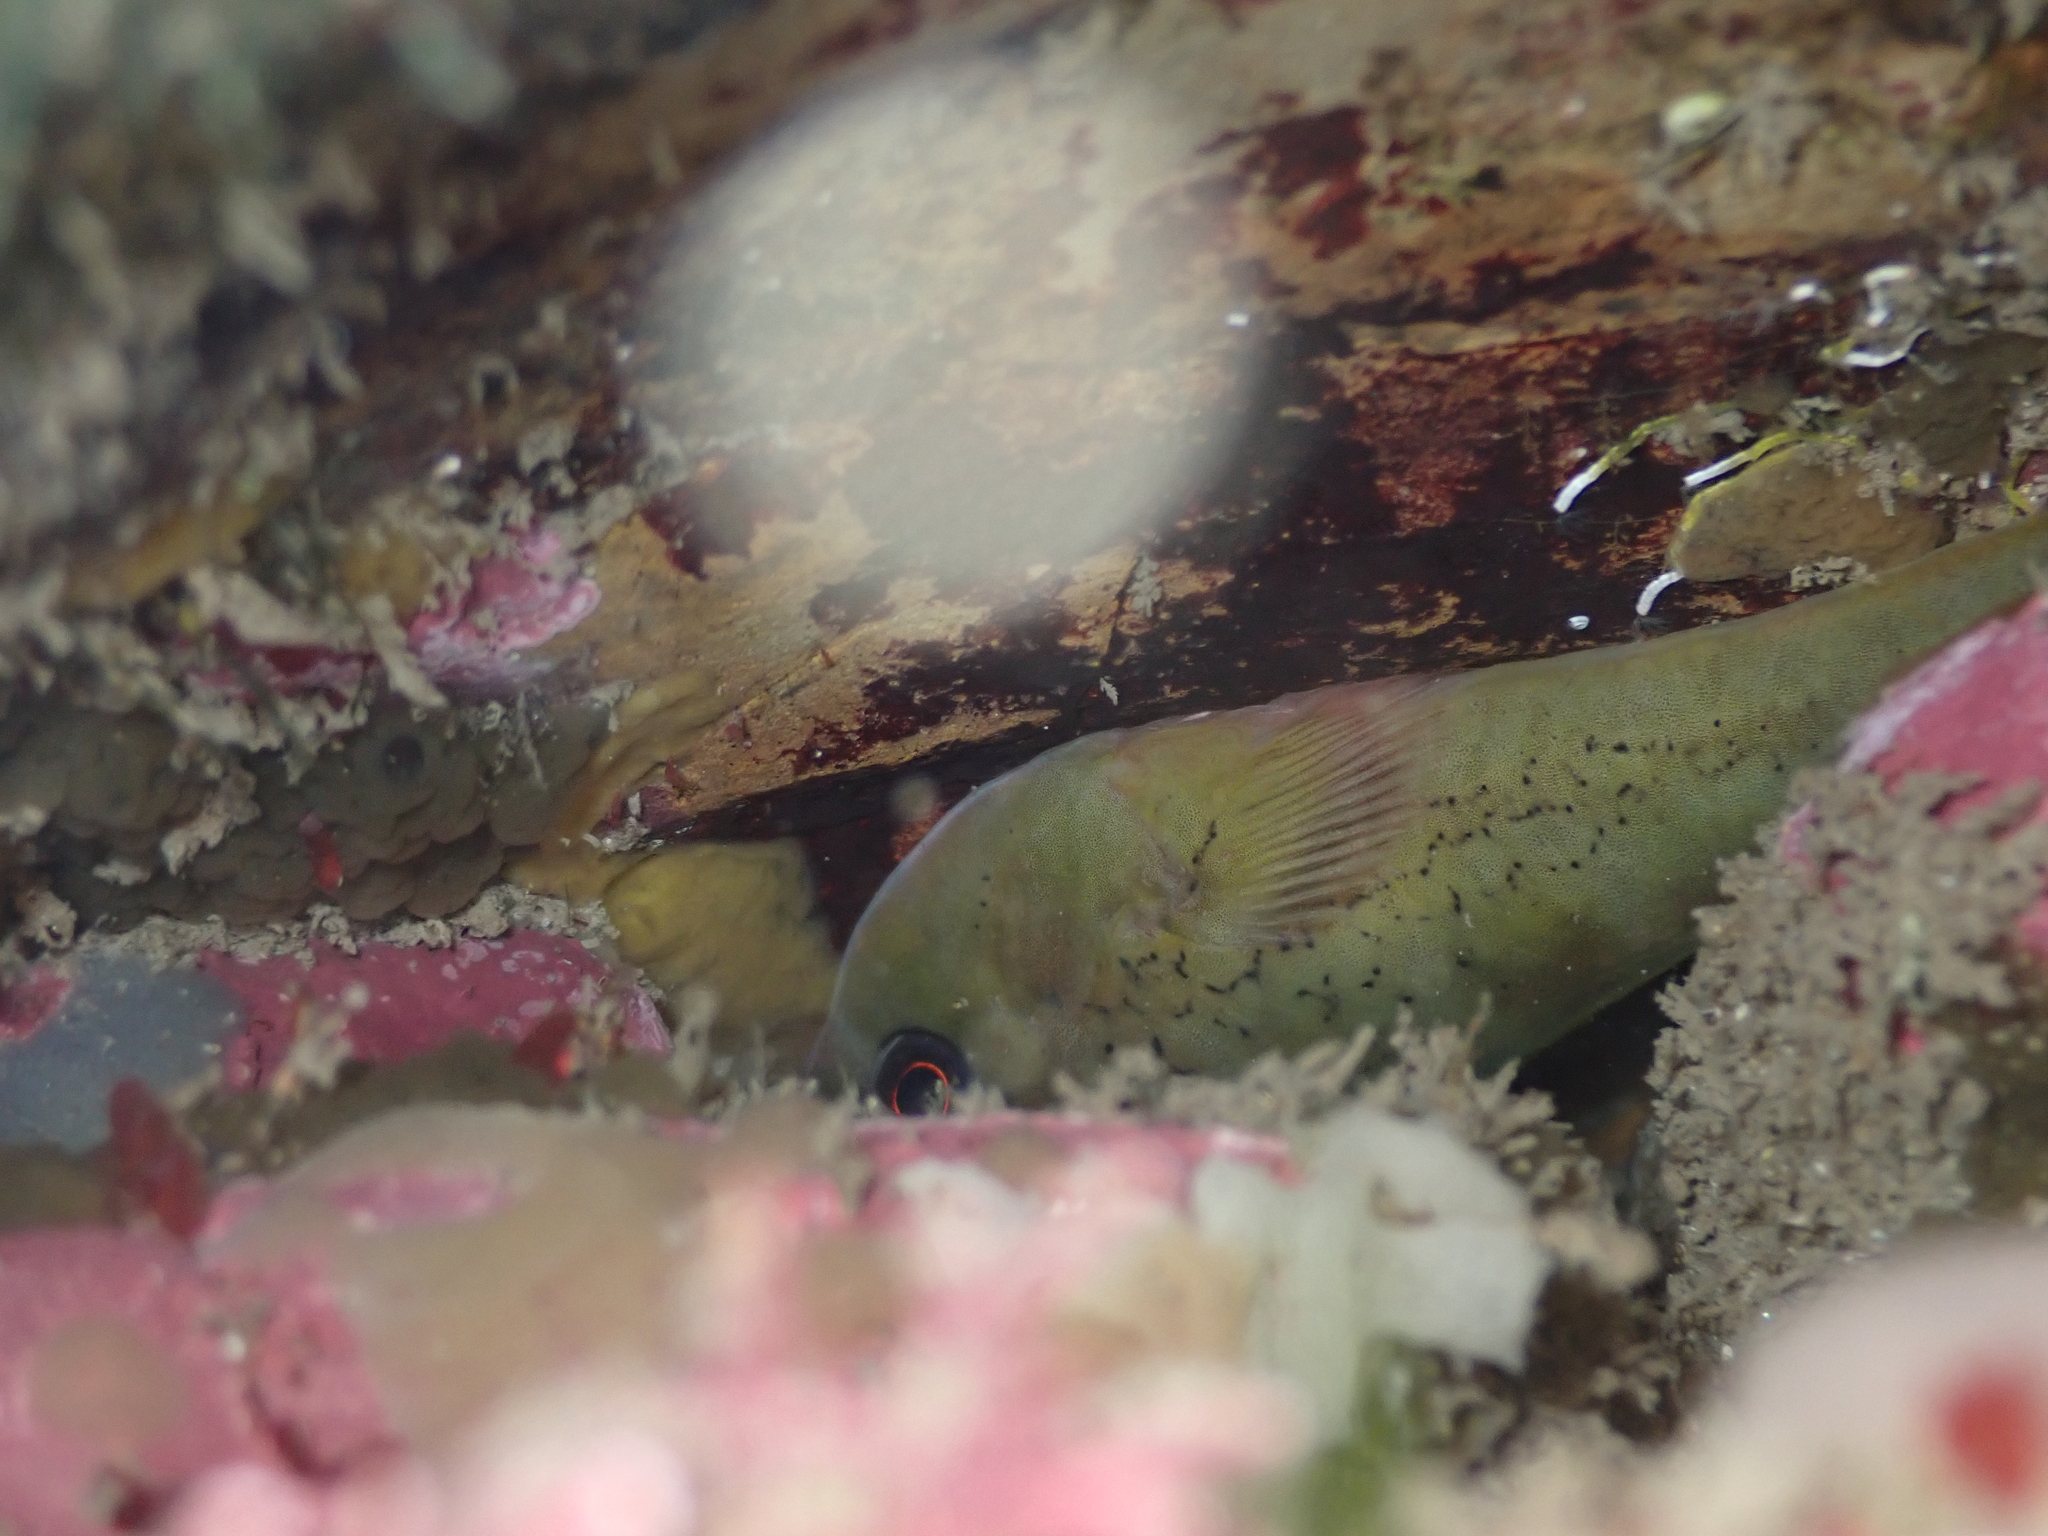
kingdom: Animalia
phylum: Chordata
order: Gobiesociformes
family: Gobiesocidae
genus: Diplocrepis
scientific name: Diplocrepis puniceus
